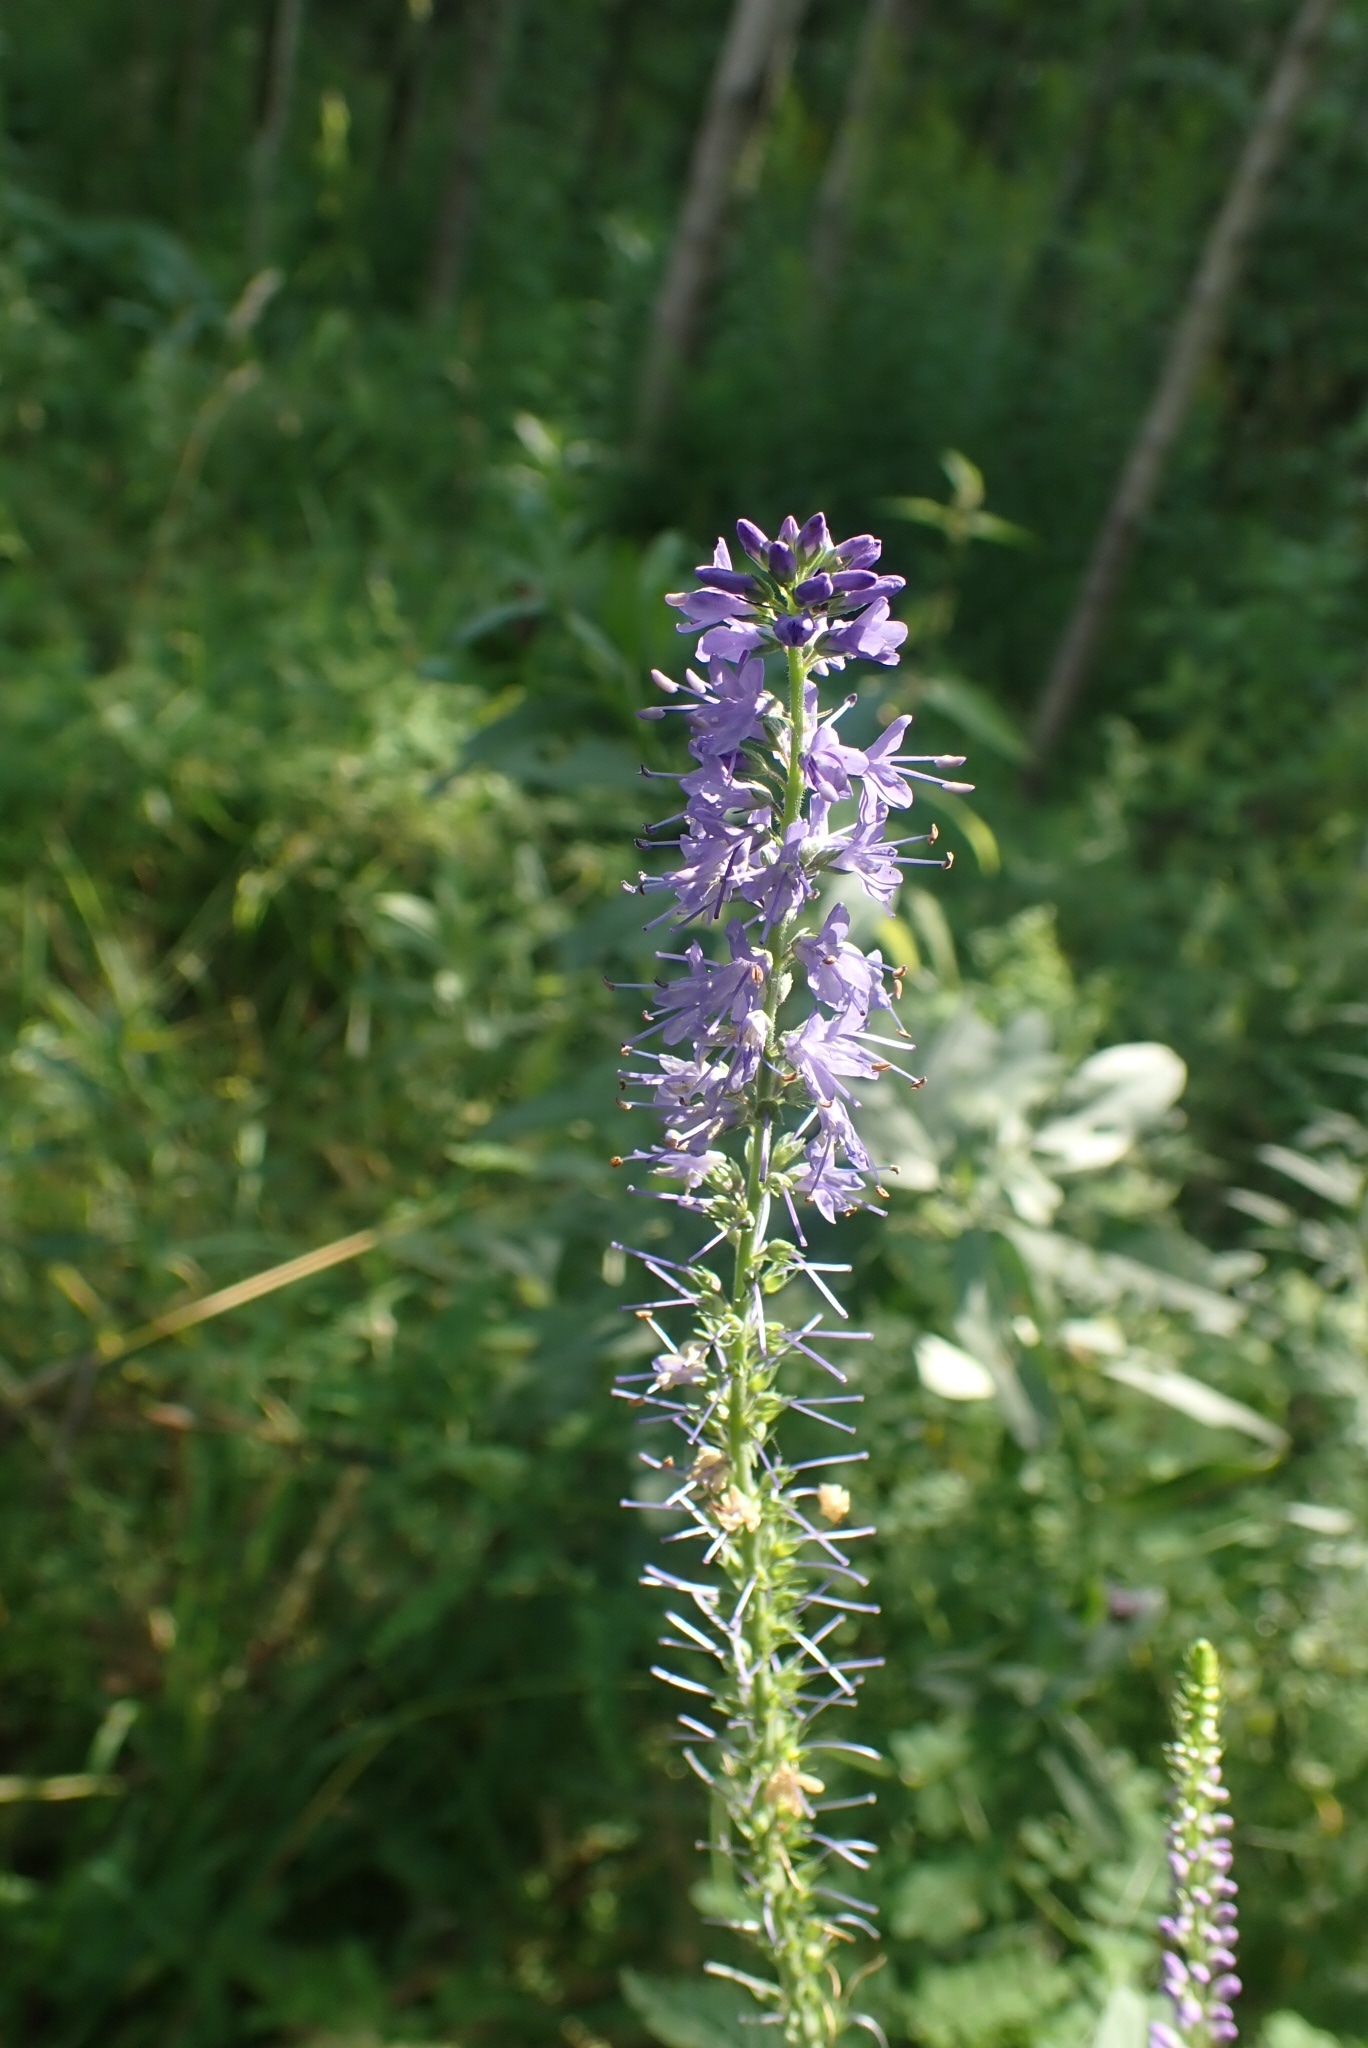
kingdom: Plantae
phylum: Tracheophyta
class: Magnoliopsida
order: Lamiales
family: Plantaginaceae
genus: Veronica
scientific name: Veronica longifolia
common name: Garden speedwell
